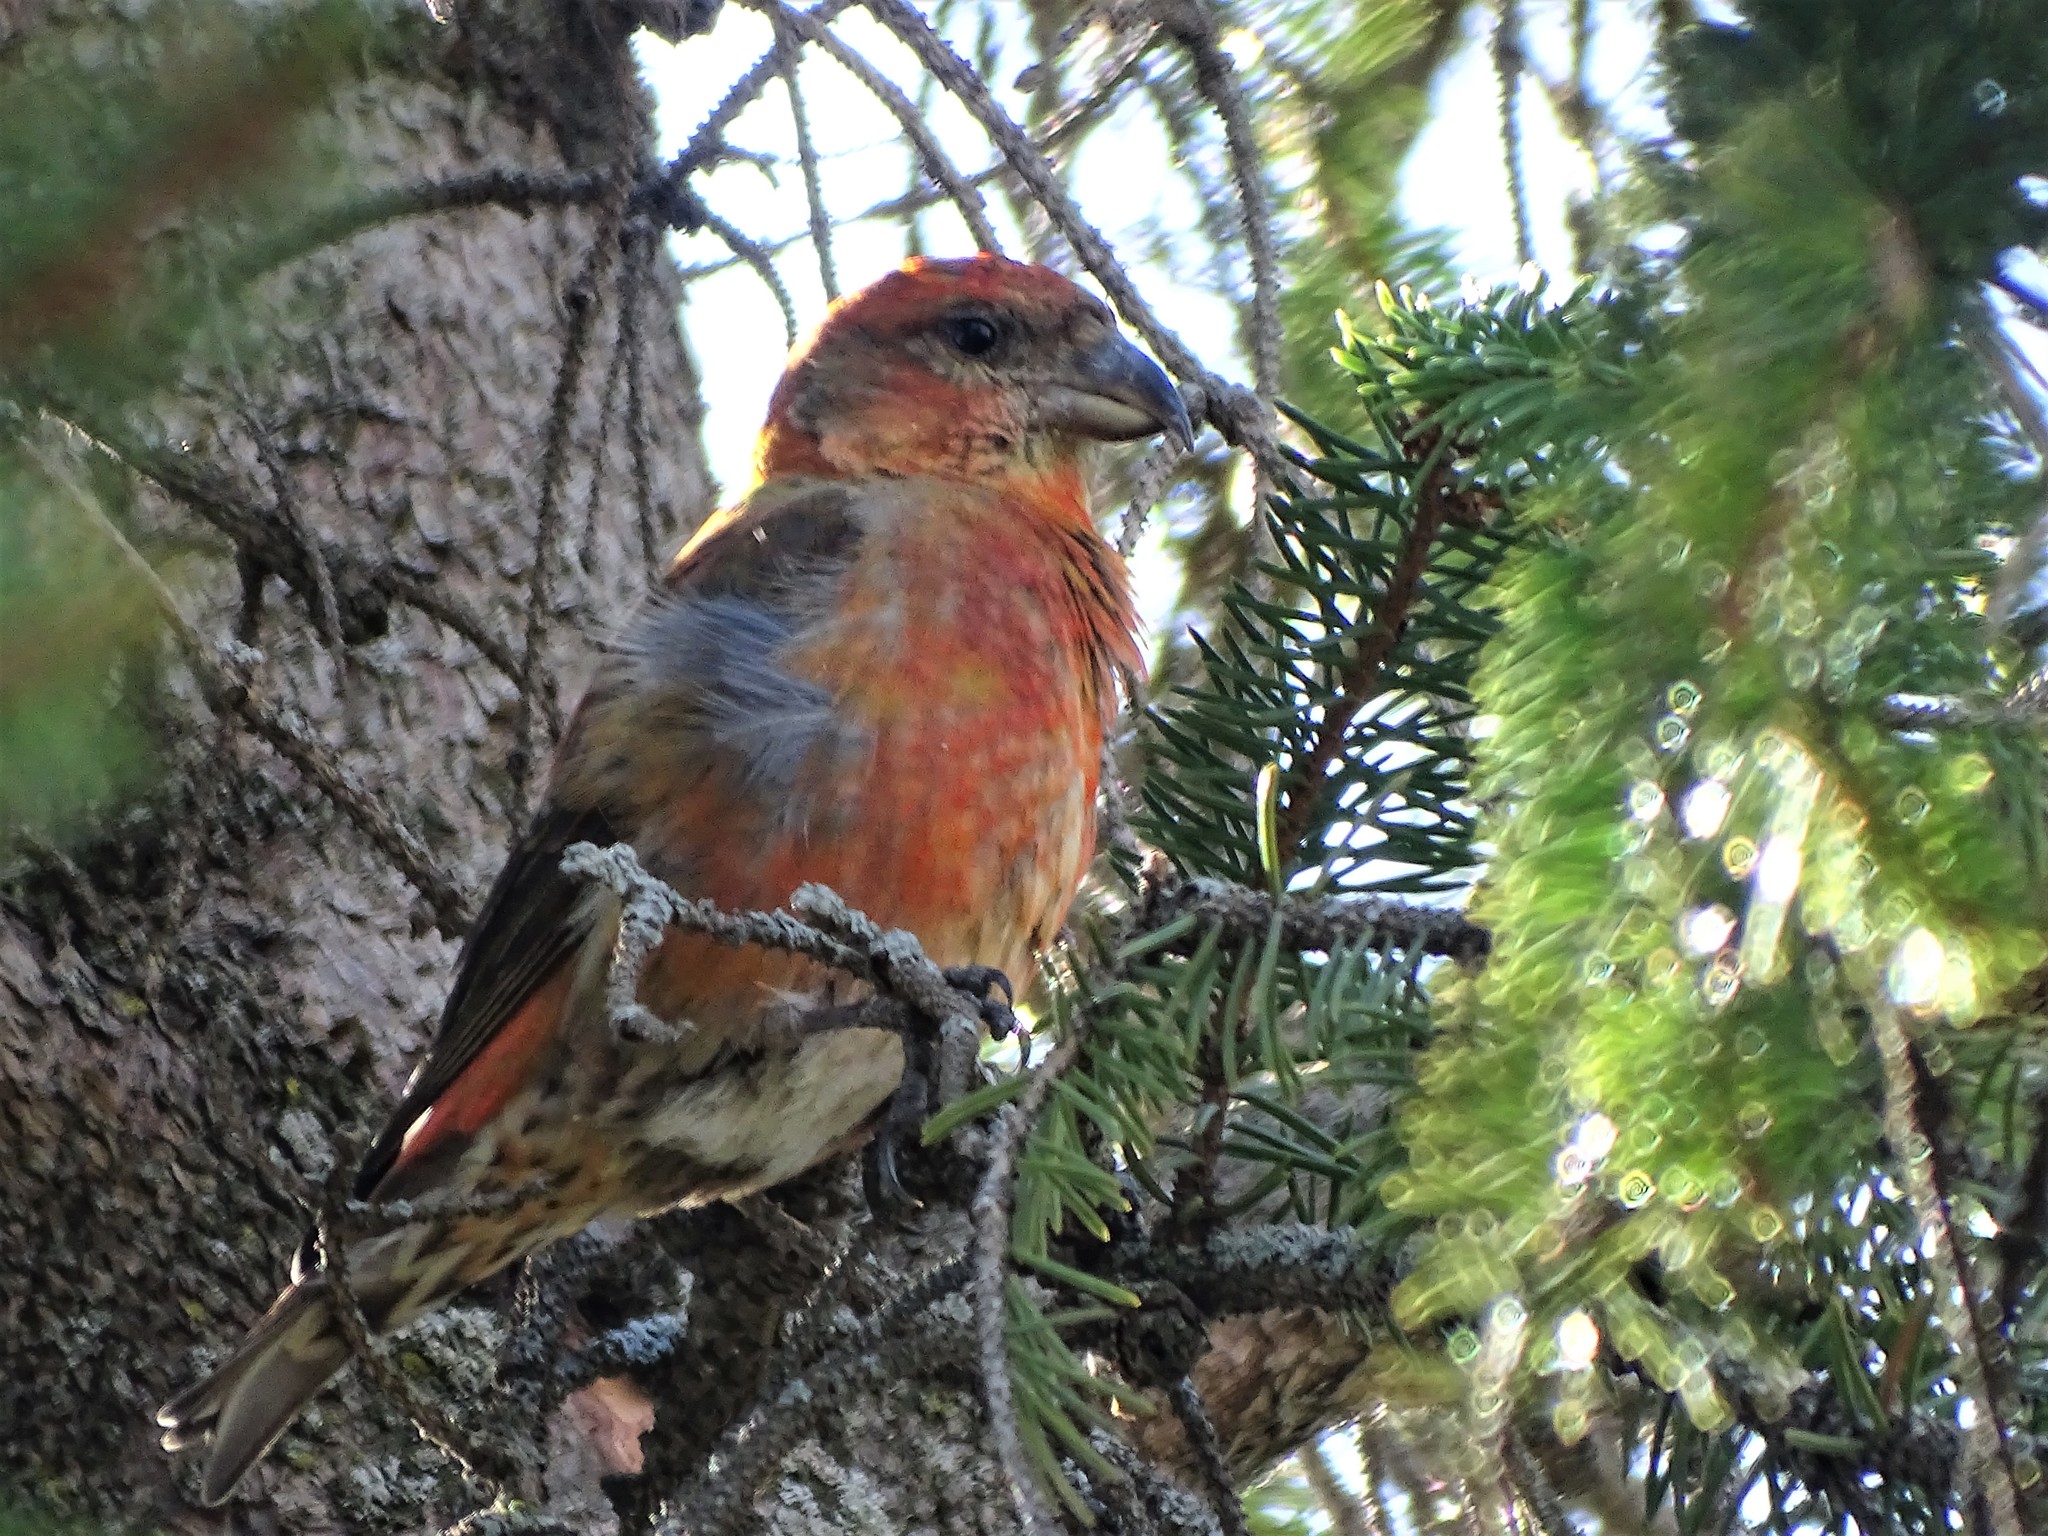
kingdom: Animalia
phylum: Chordata
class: Aves
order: Passeriformes
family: Fringillidae
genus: Loxia
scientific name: Loxia curvirostra
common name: Red crossbill
